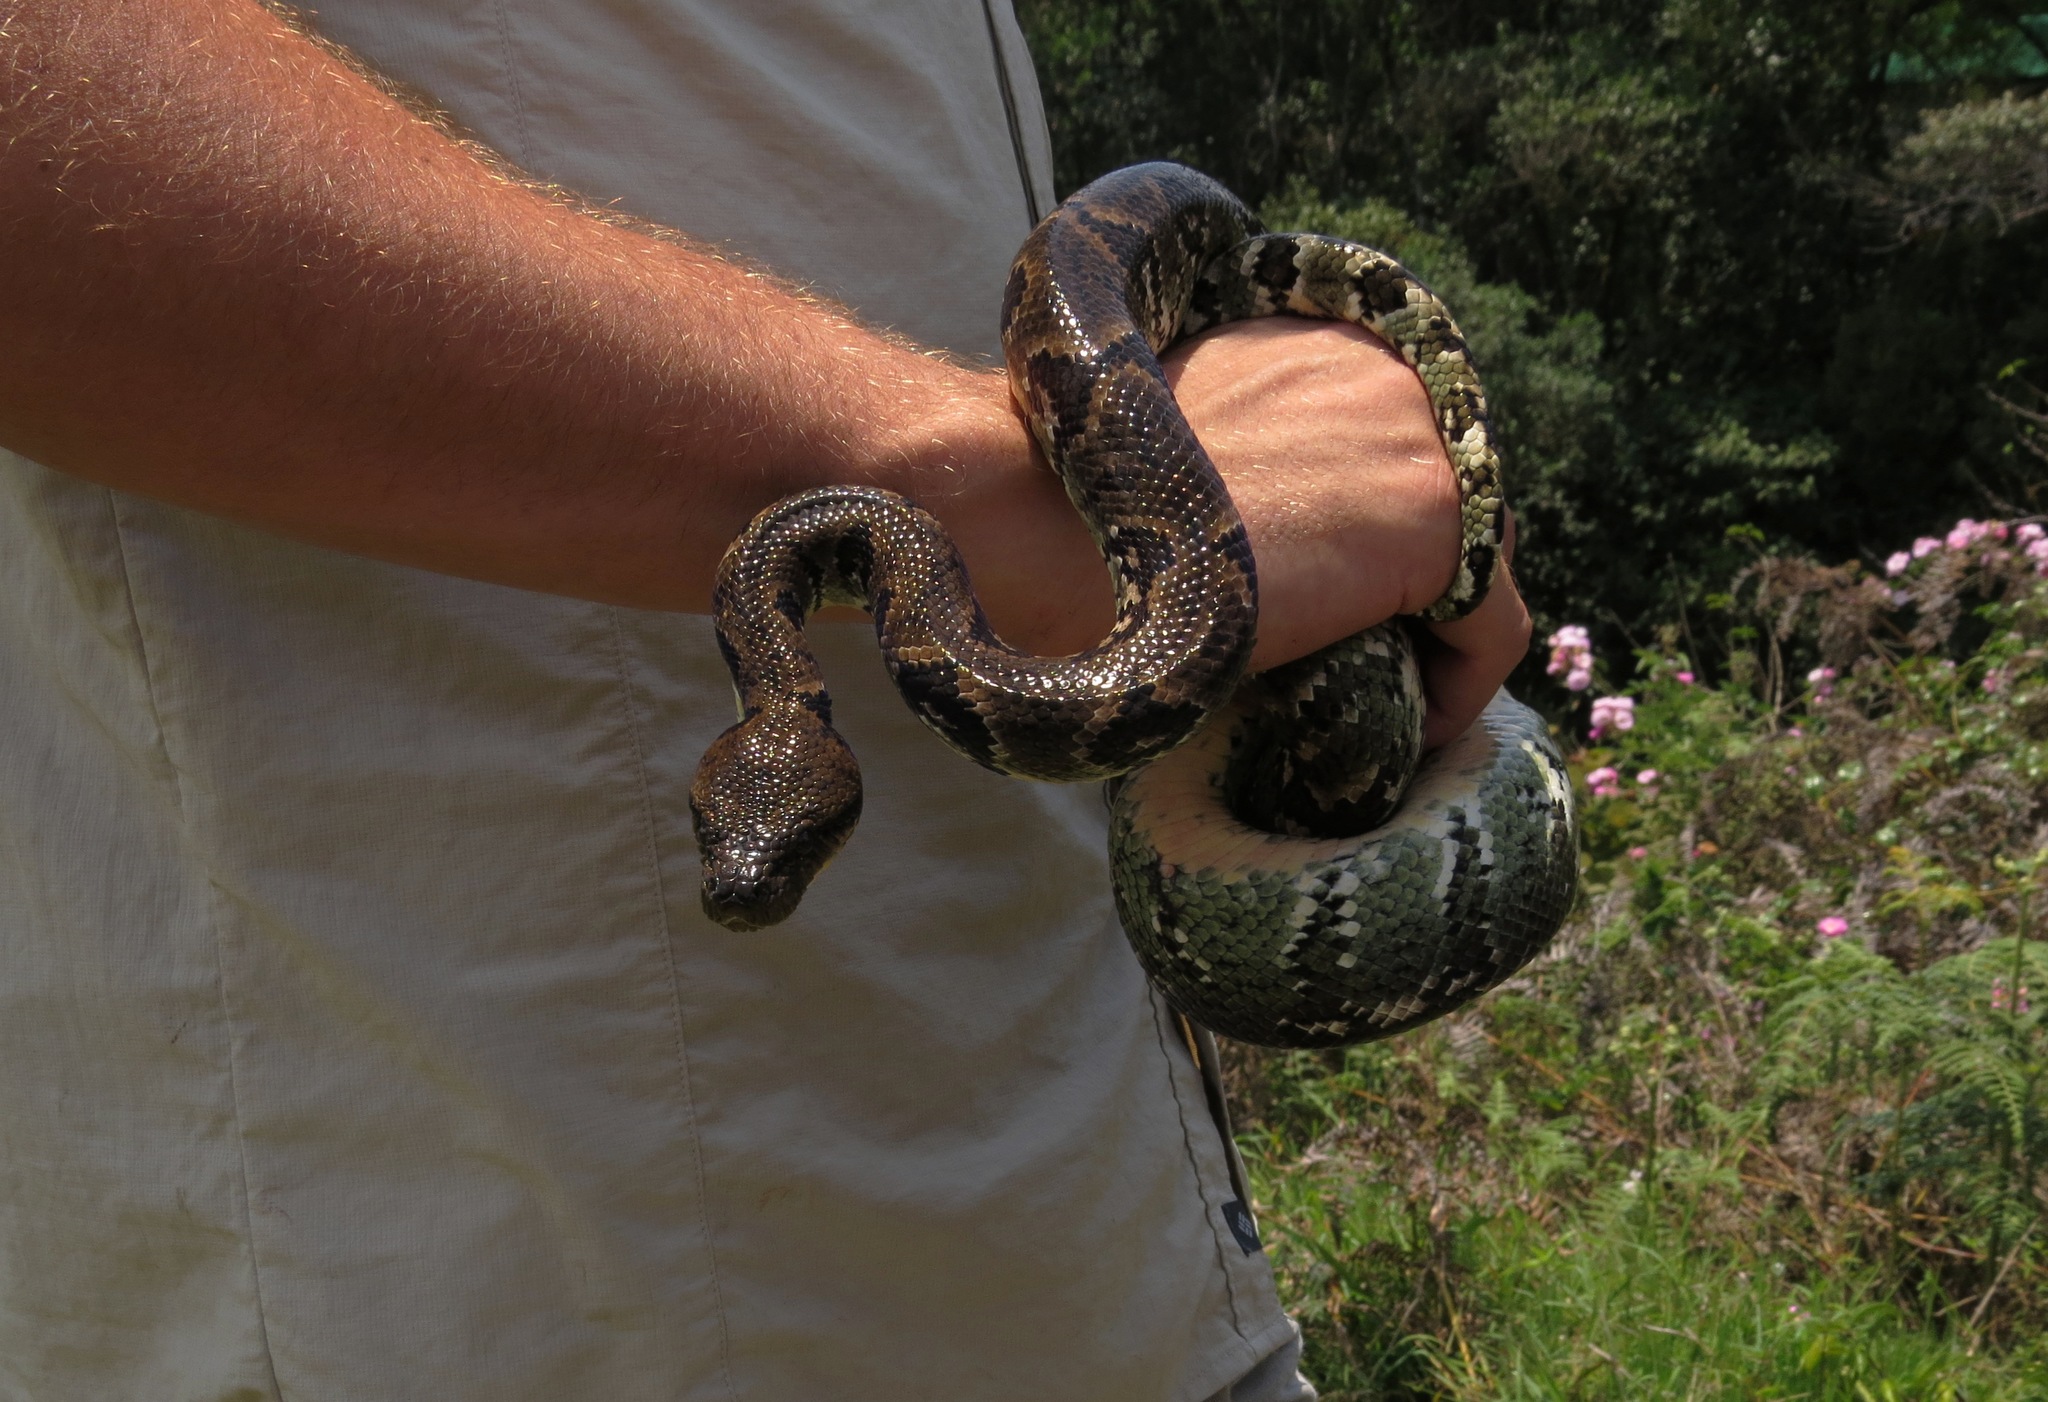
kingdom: Animalia
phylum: Chordata
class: Squamata
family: Boidae
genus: Sanzinia
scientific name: Sanzinia madagascariensis
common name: Madagascar tree boa
